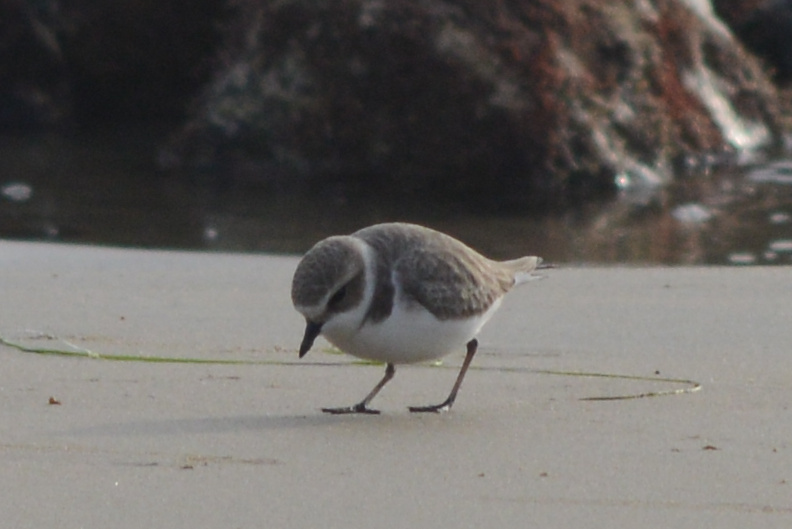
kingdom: Animalia
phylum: Chordata
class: Aves
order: Charadriiformes
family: Charadriidae
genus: Anarhynchus
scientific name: Anarhynchus
